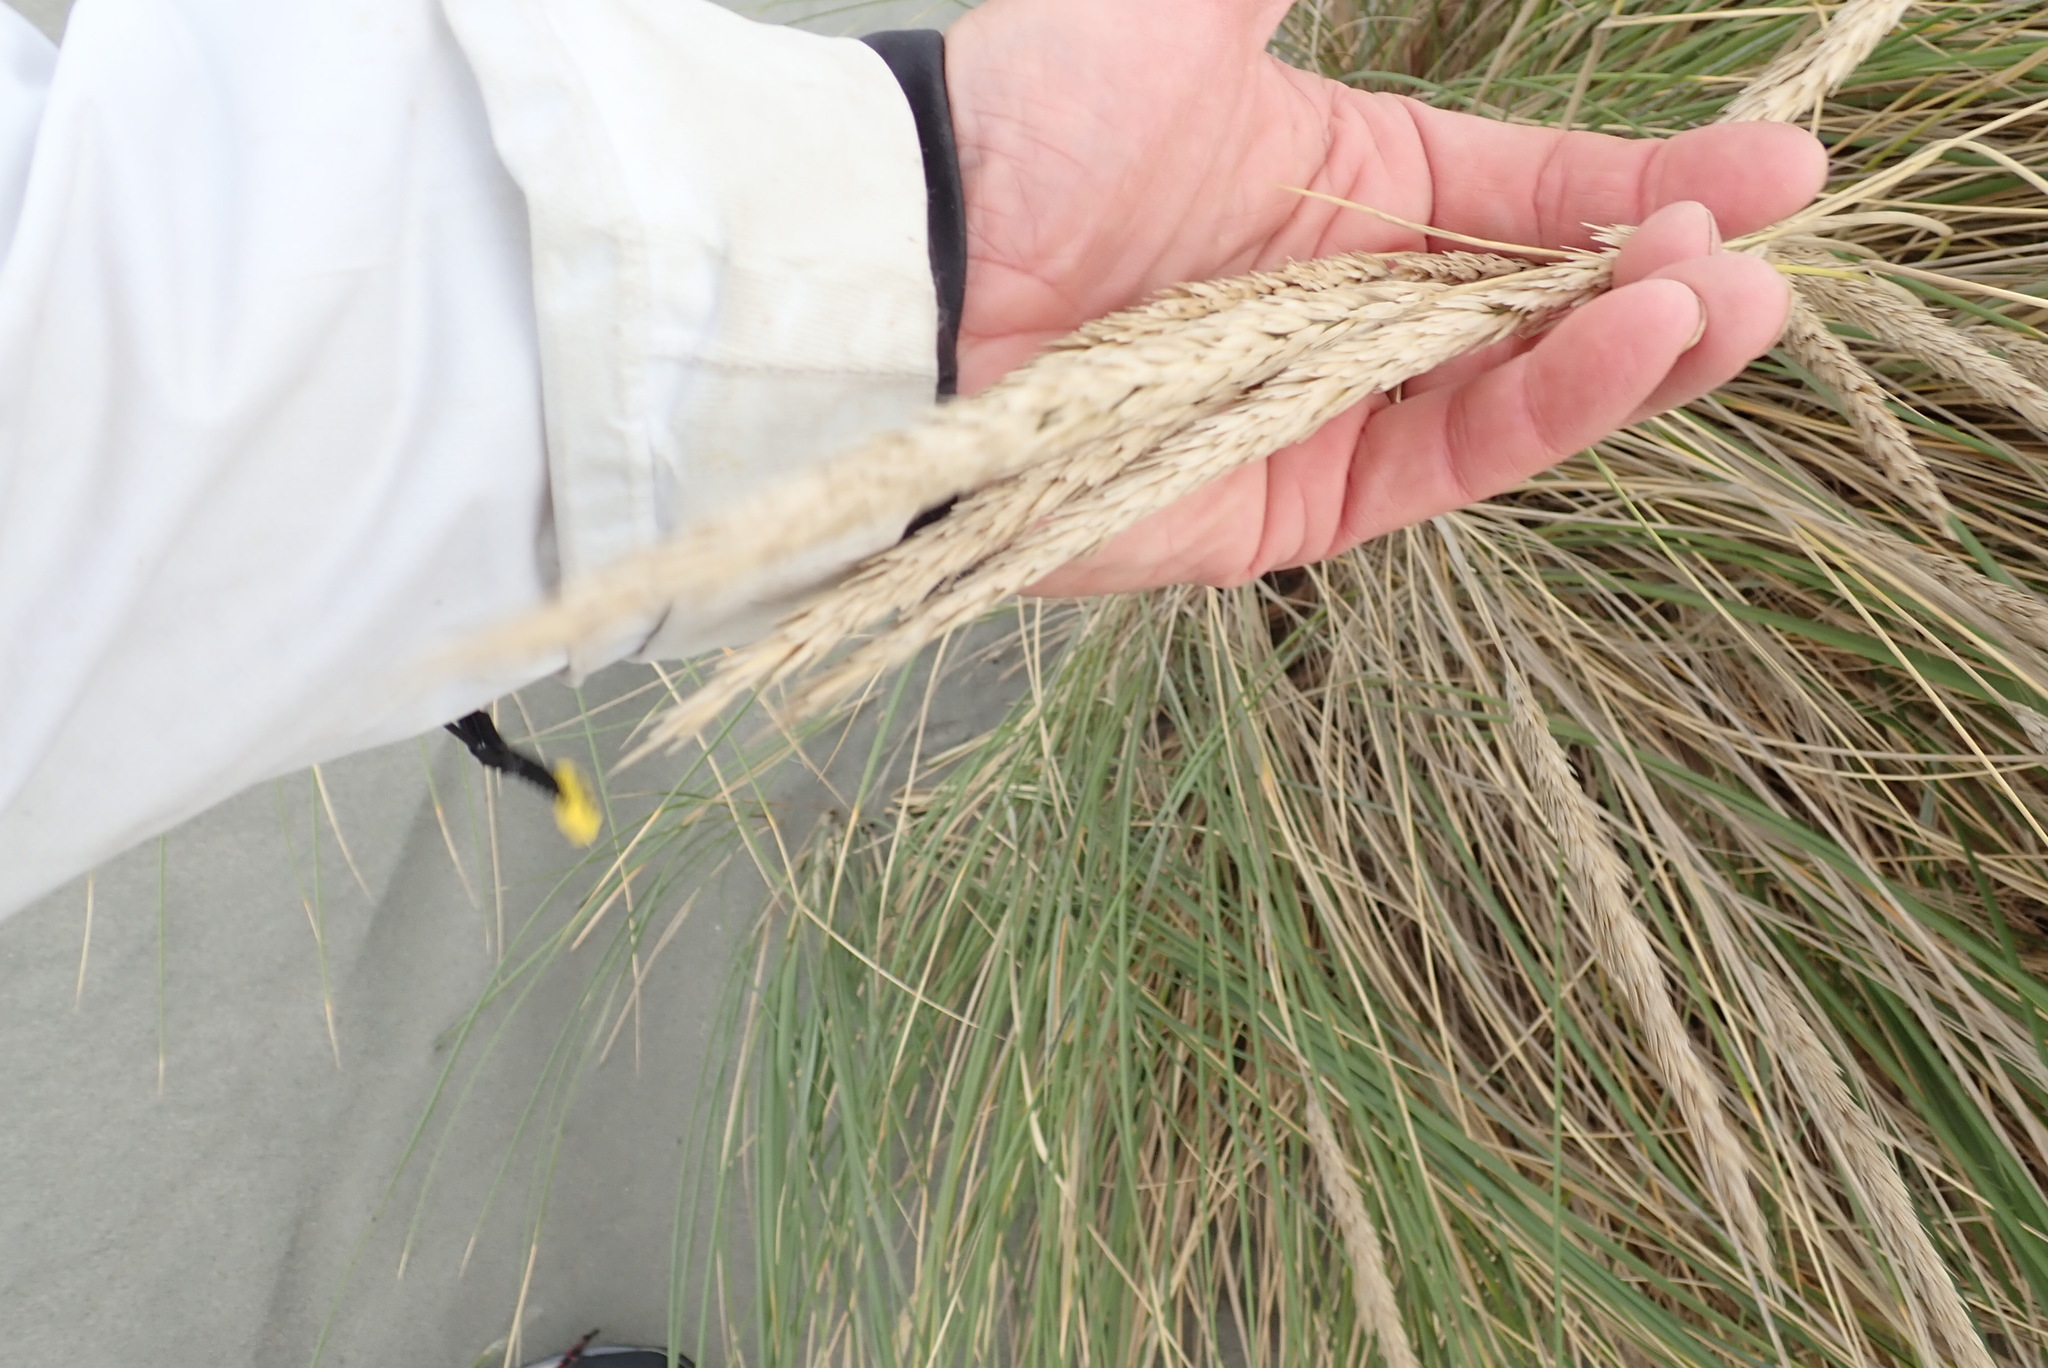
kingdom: Plantae
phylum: Tracheophyta
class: Liliopsida
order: Poales
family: Poaceae
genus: Calamagrostis
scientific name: Calamagrostis arenaria
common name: European beachgrass
